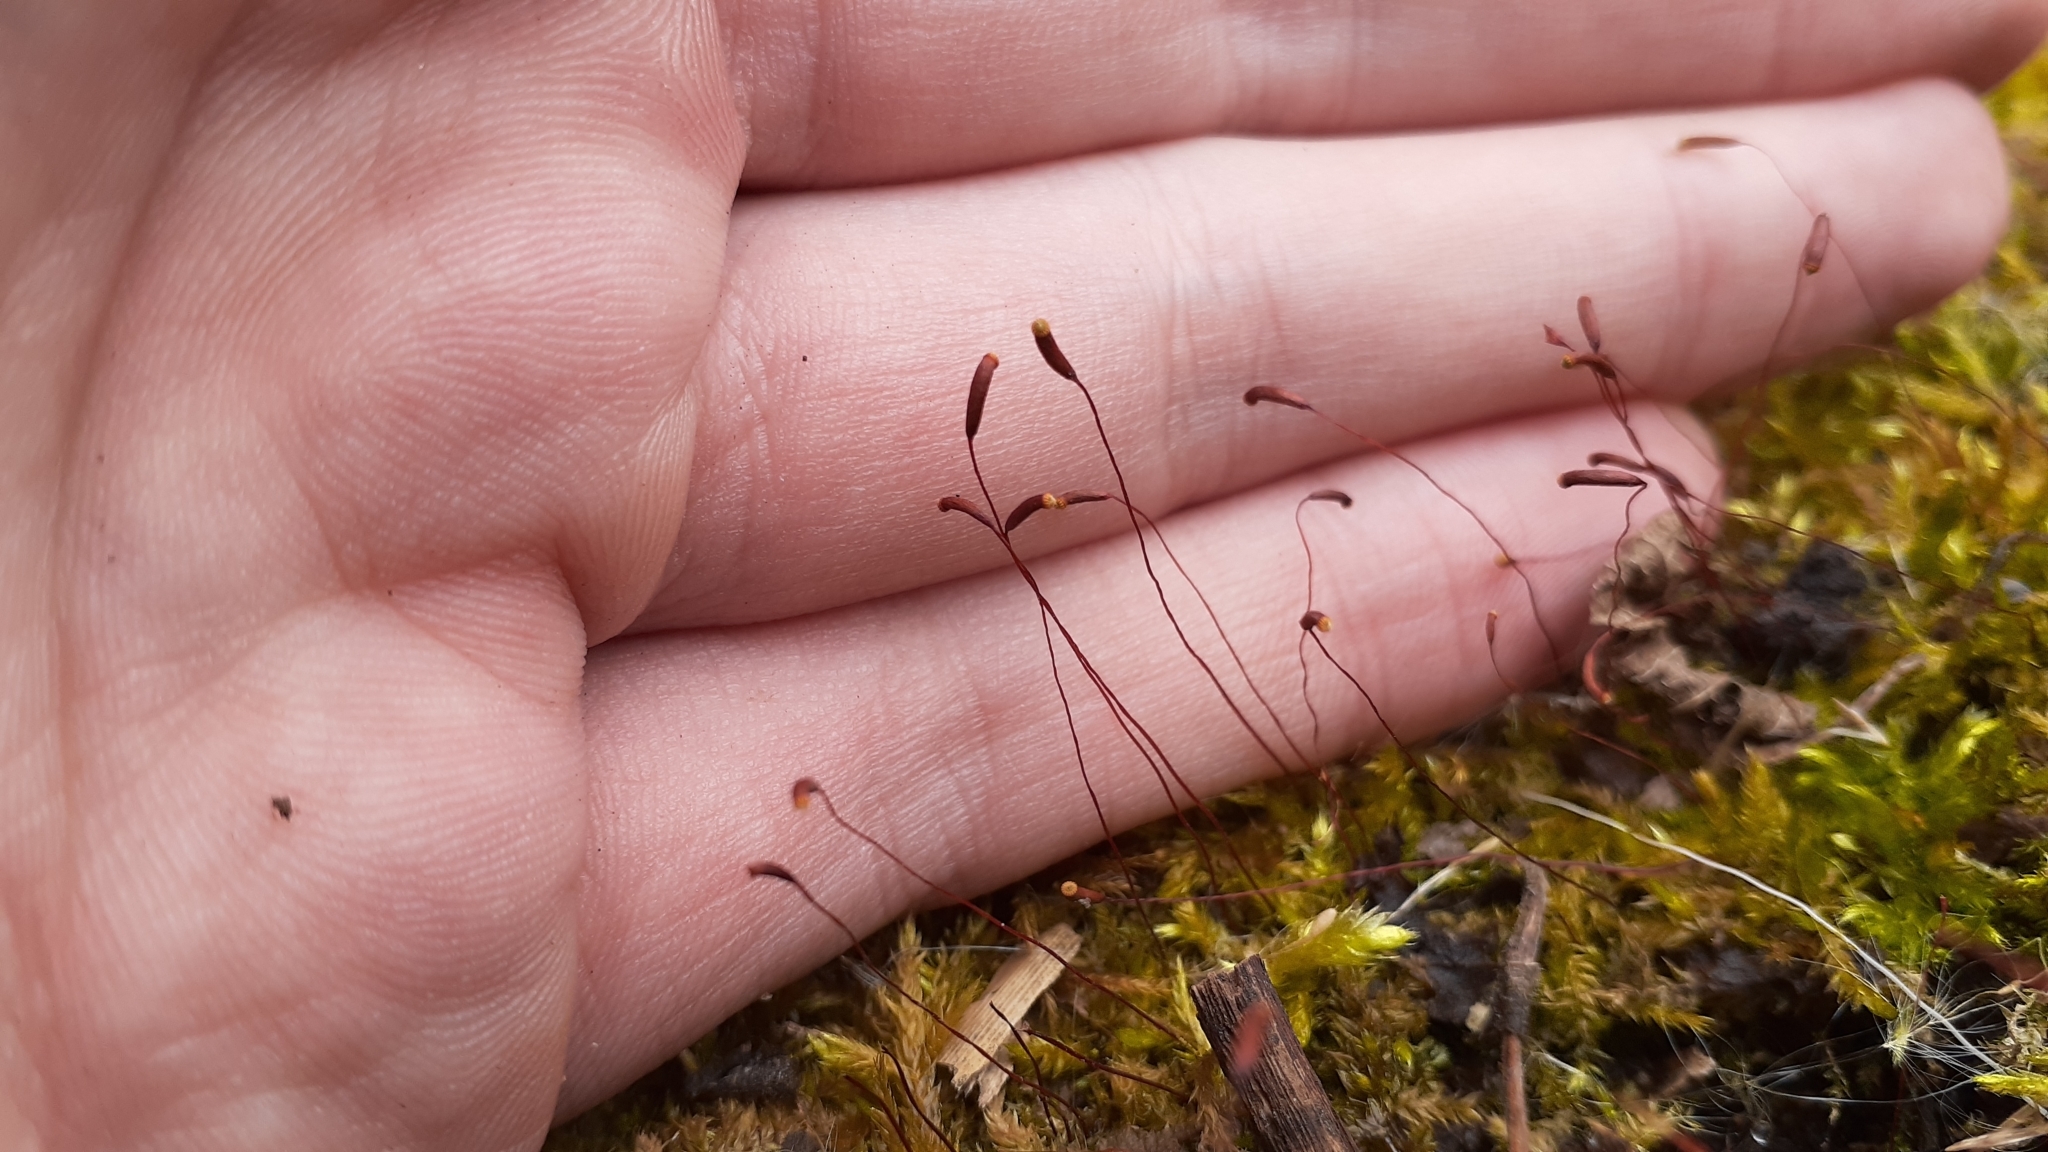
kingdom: Plantae
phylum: Bryophyta
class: Bryopsida
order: Hypnales
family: Callicladiaceae
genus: Callicladium
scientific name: Callicladium haldanianum
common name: Beautiful branch moss
